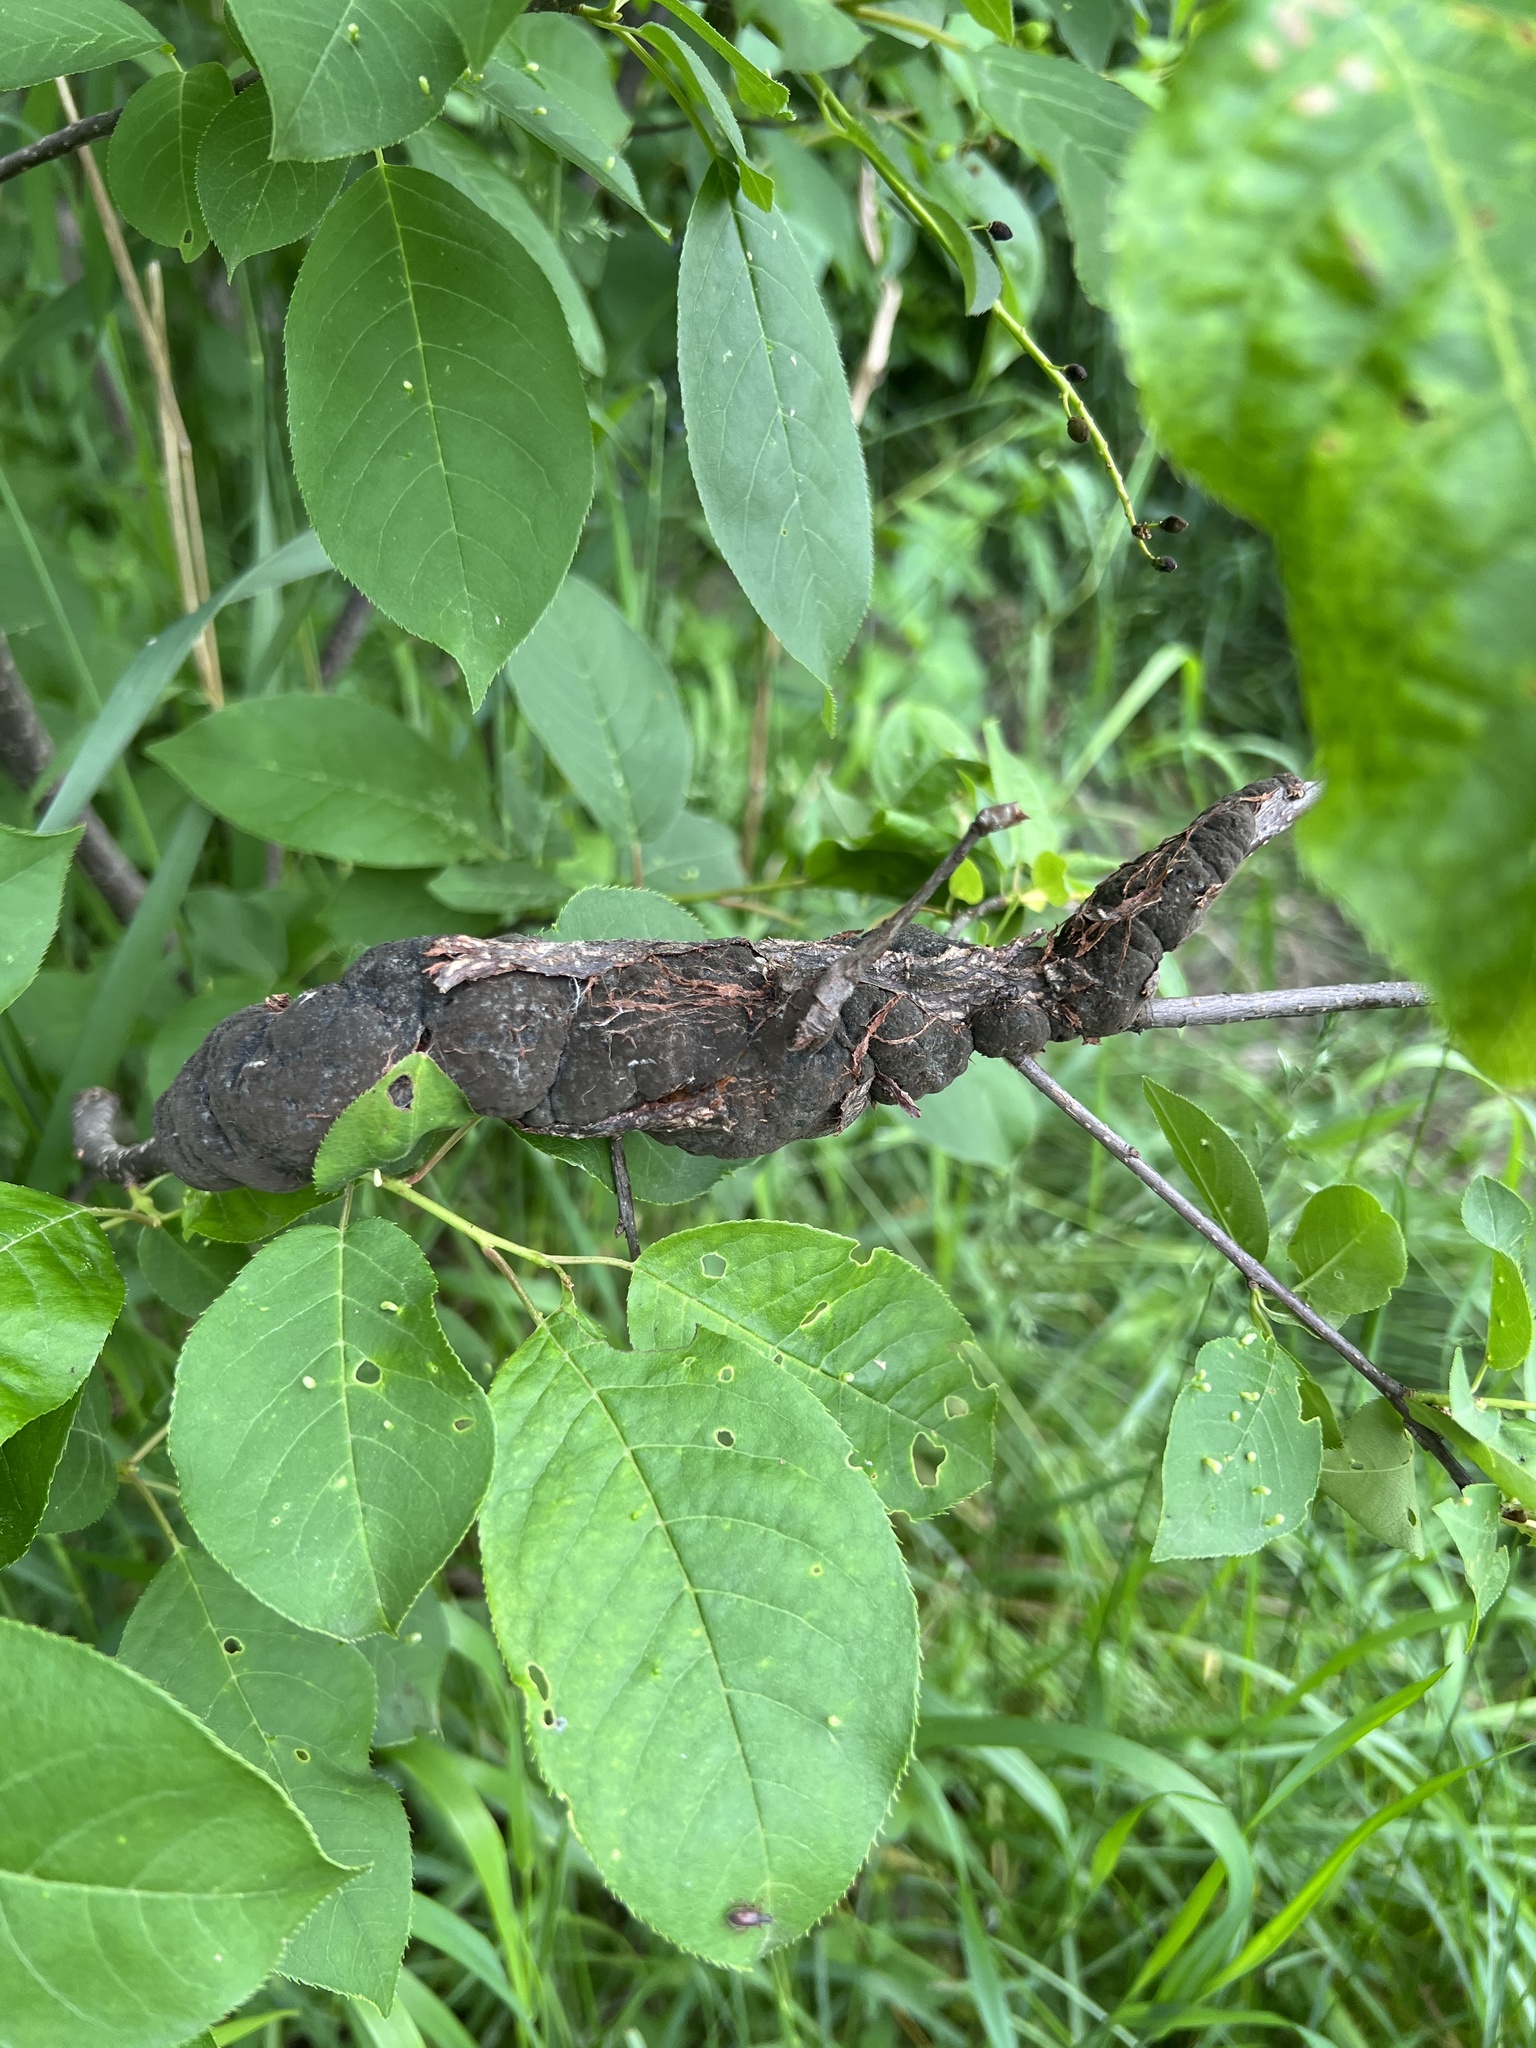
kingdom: Fungi
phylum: Ascomycota
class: Dothideomycetes
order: Venturiales
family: Venturiaceae
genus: Apiosporina
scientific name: Apiosporina morbosa
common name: Black knot
